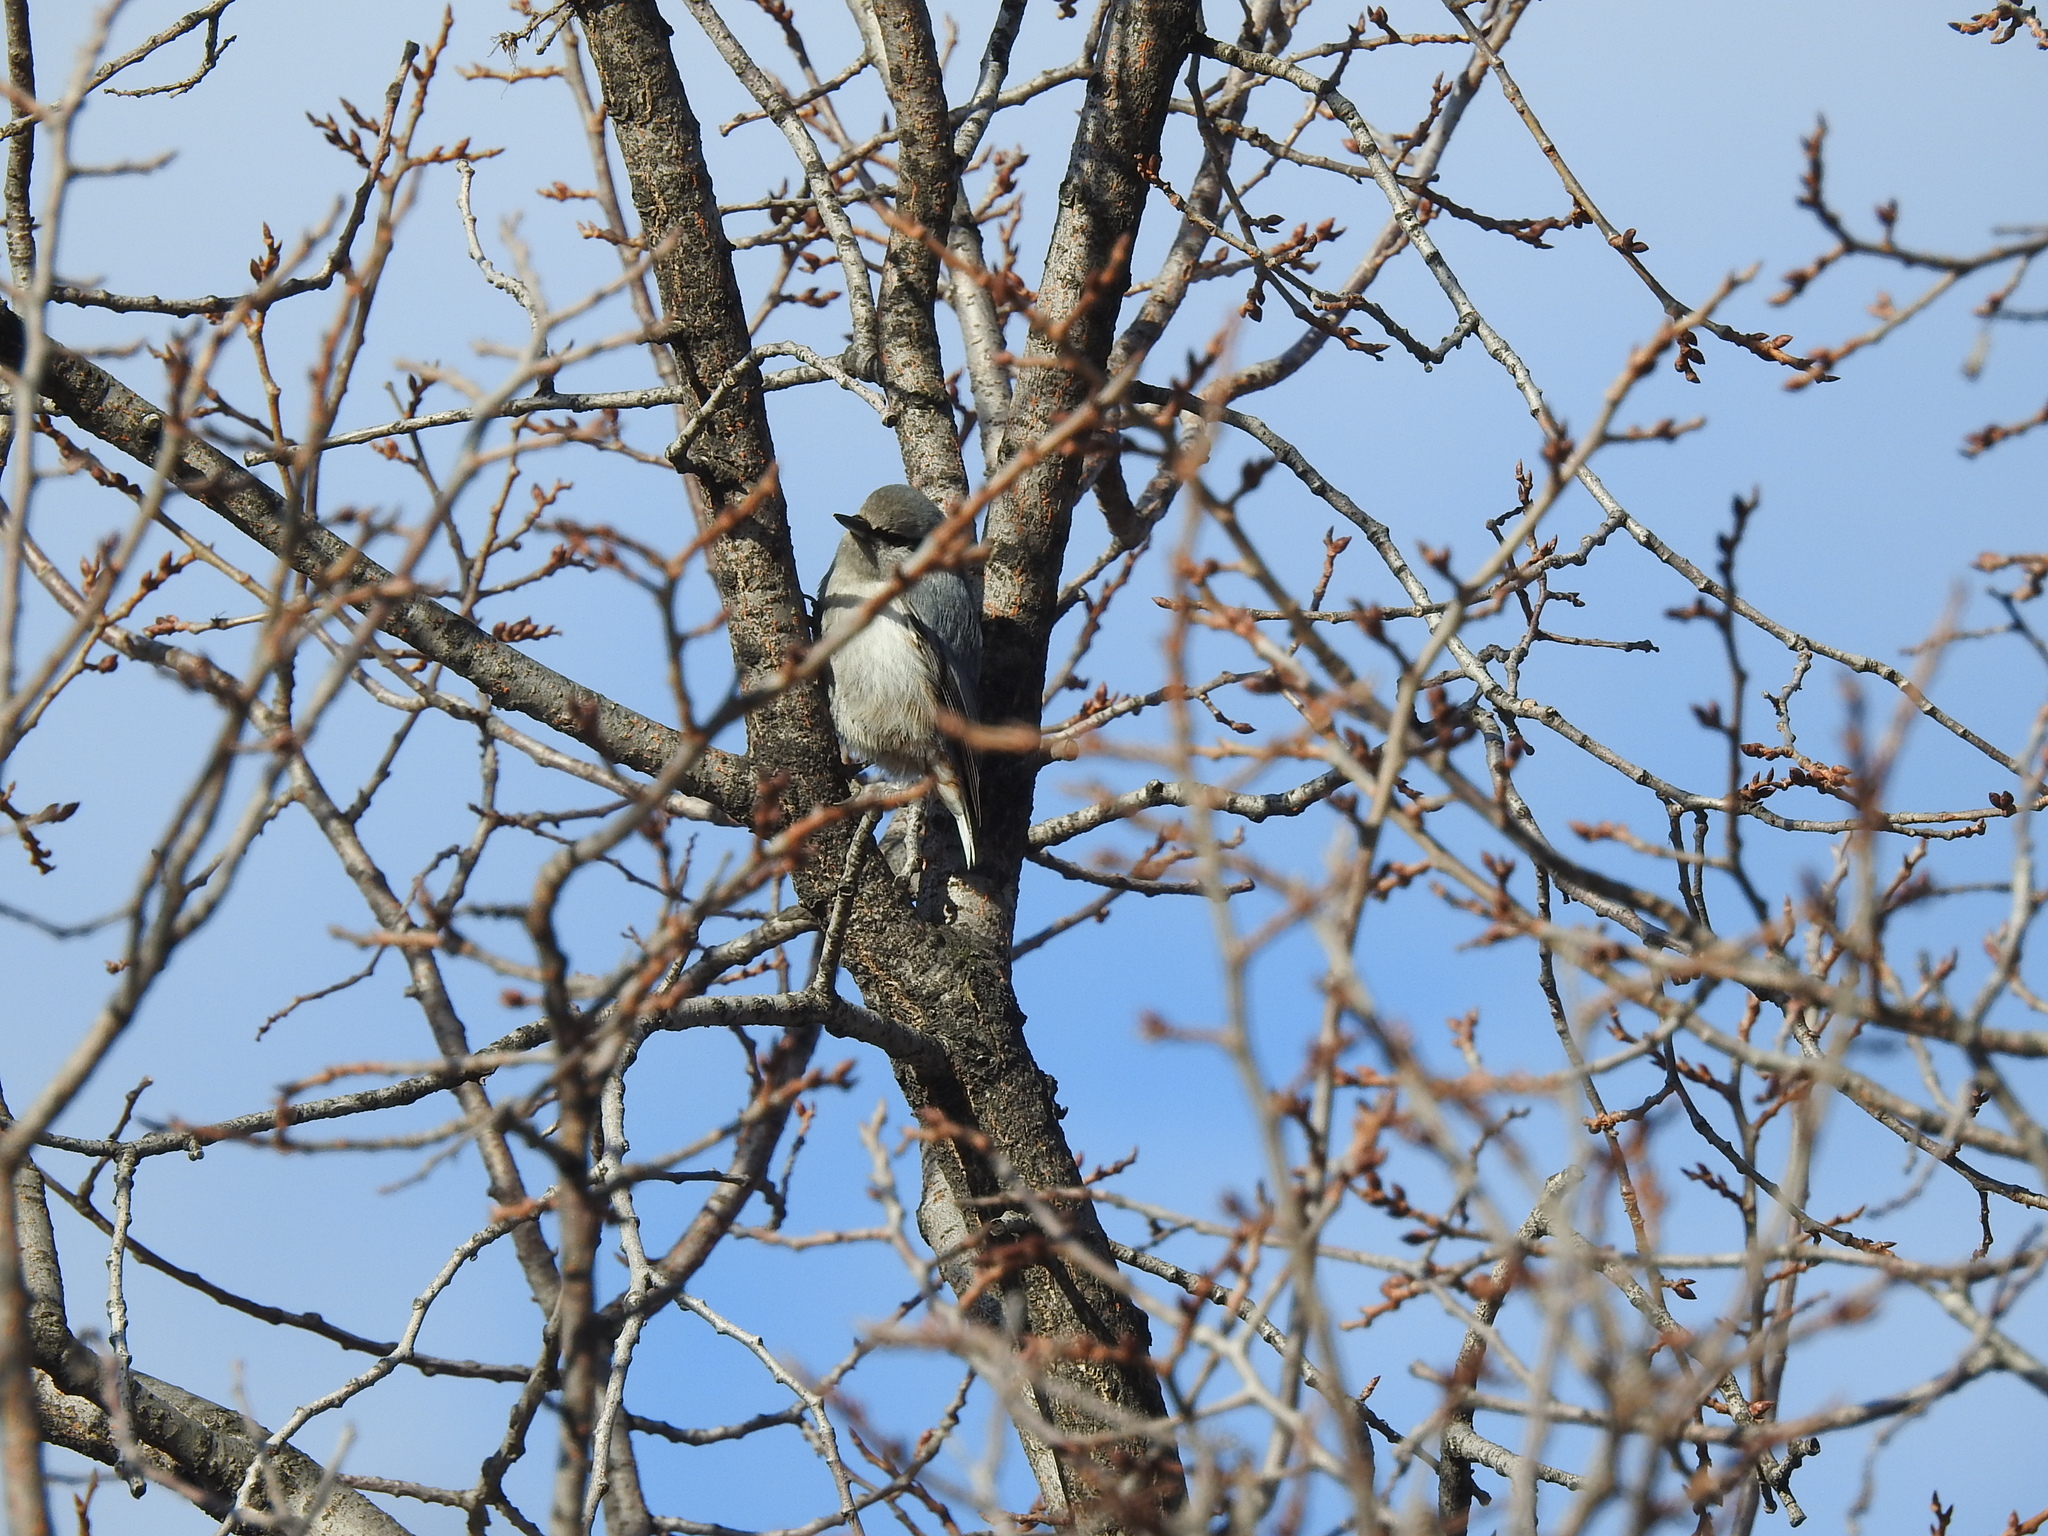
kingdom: Animalia
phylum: Chordata
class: Aves
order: Passeriformes
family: Sittidae
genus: Sitta
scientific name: Sitta europaea
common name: Eurasian nuthatch
